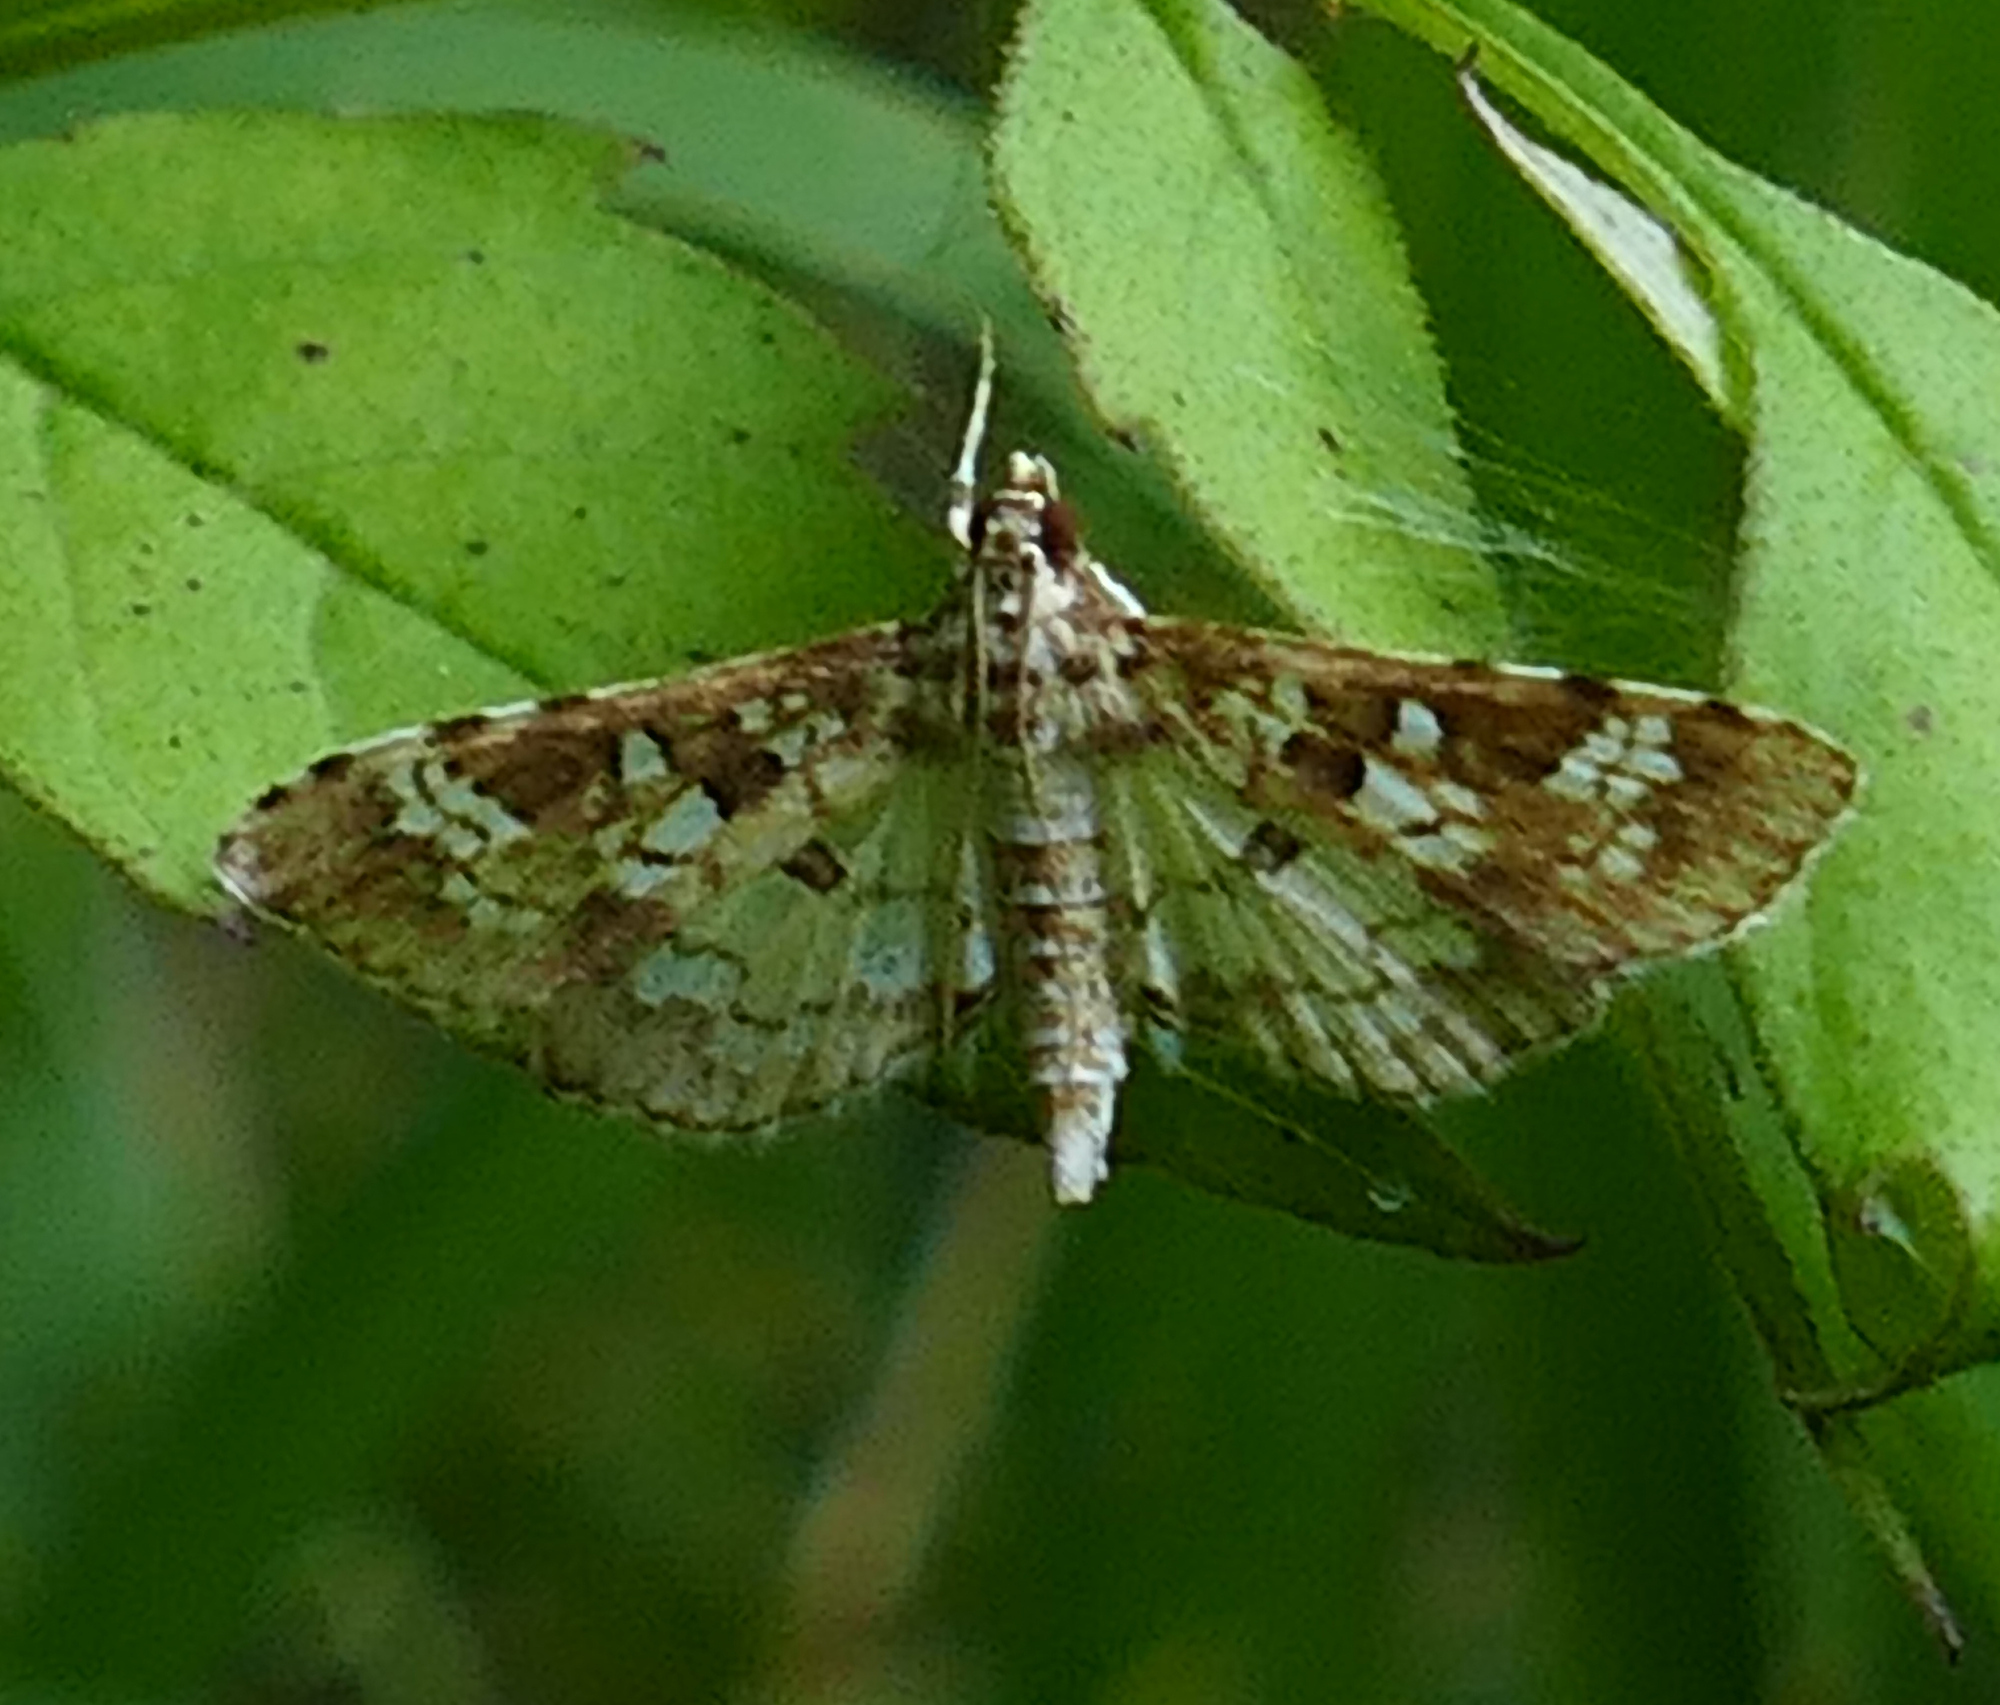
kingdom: Animalia
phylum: Arthropoda
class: Insecta
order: Lepidoptera
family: Crambidae
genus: Samea
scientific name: Samea multiplicalis
